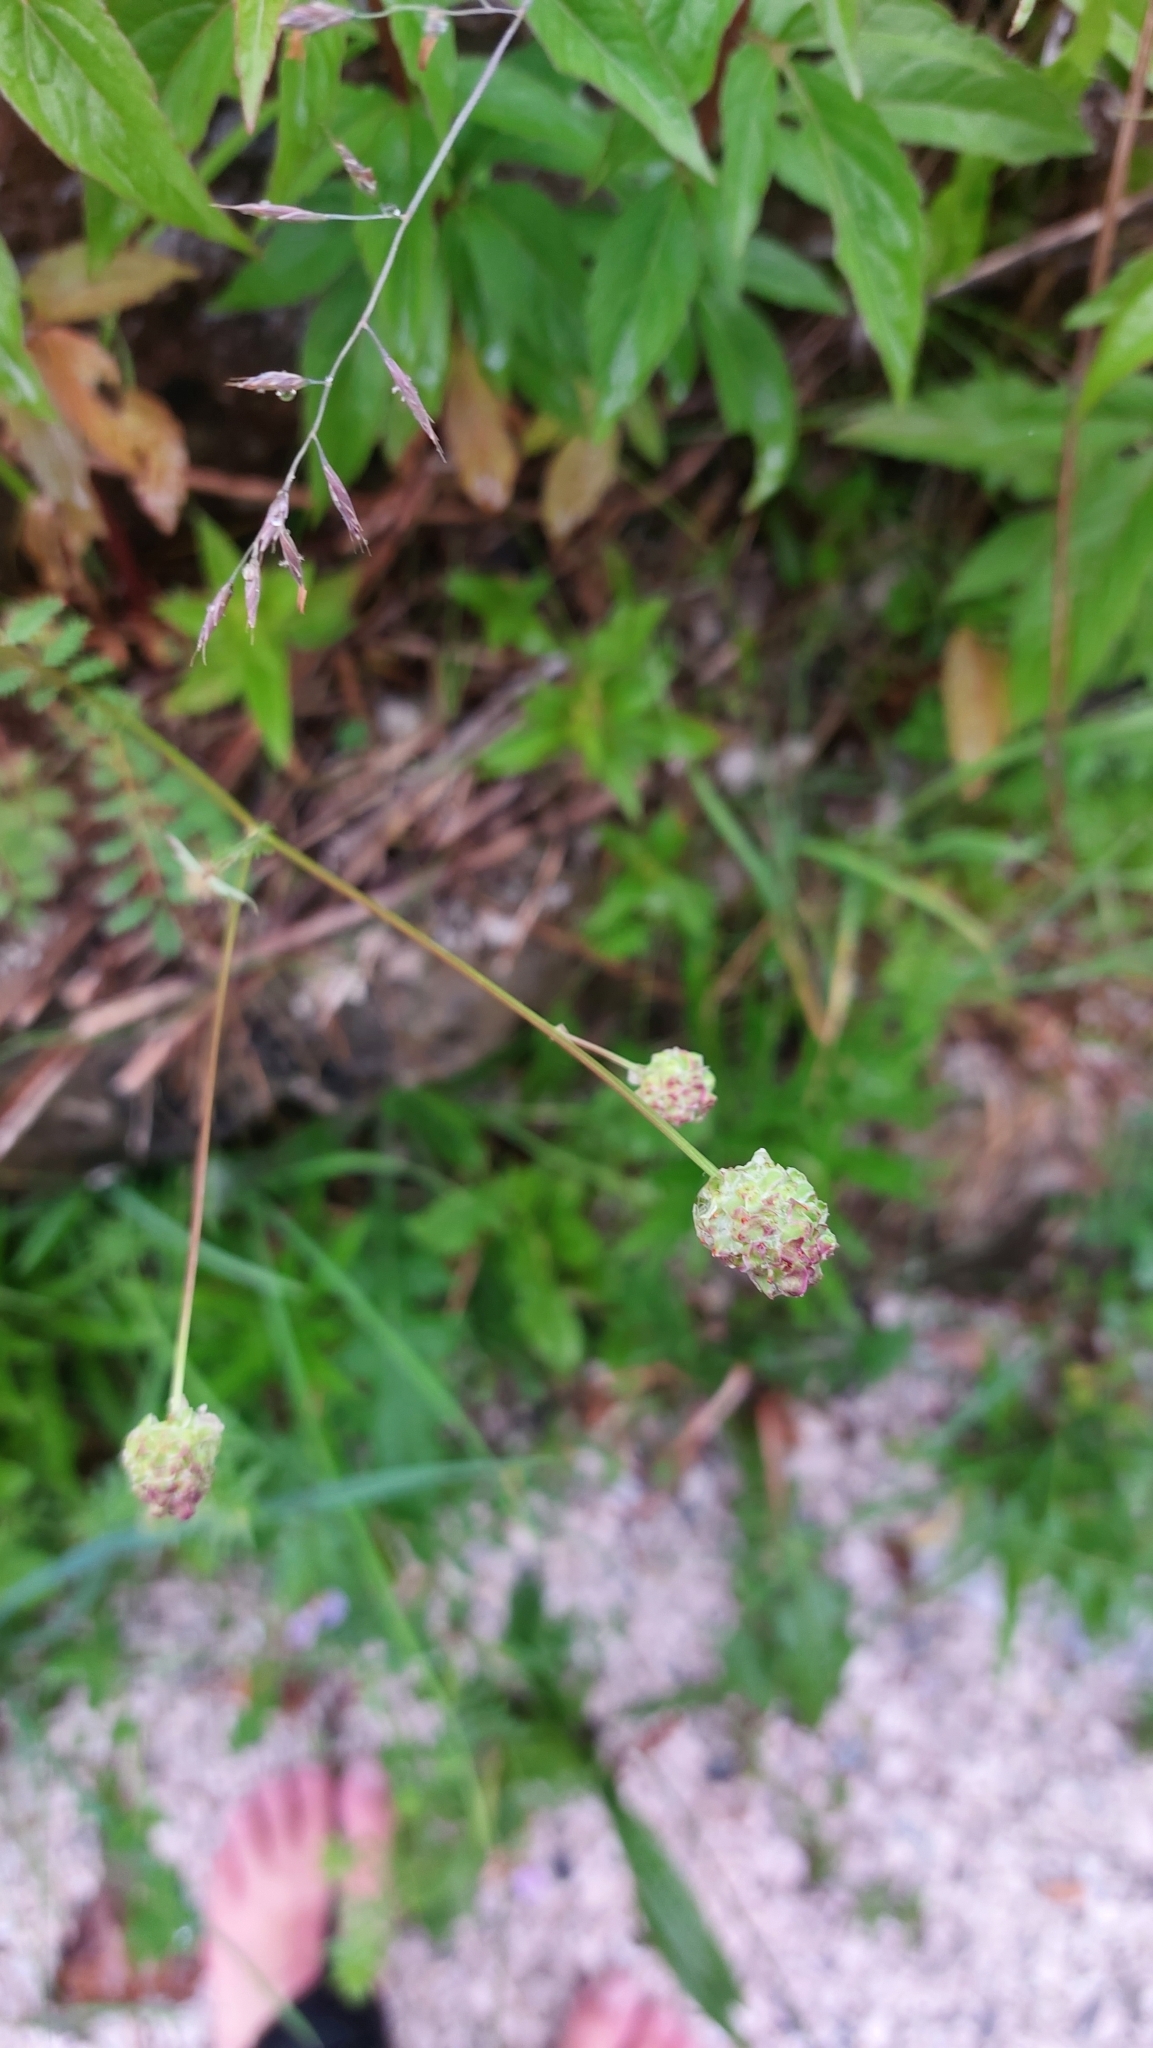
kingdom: Plantae
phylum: Tracheophyta
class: Magnoliopsida
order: Rosales
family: Rosaceae
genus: Poterium
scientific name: Poterium sanguisorba
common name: Salad burnet
